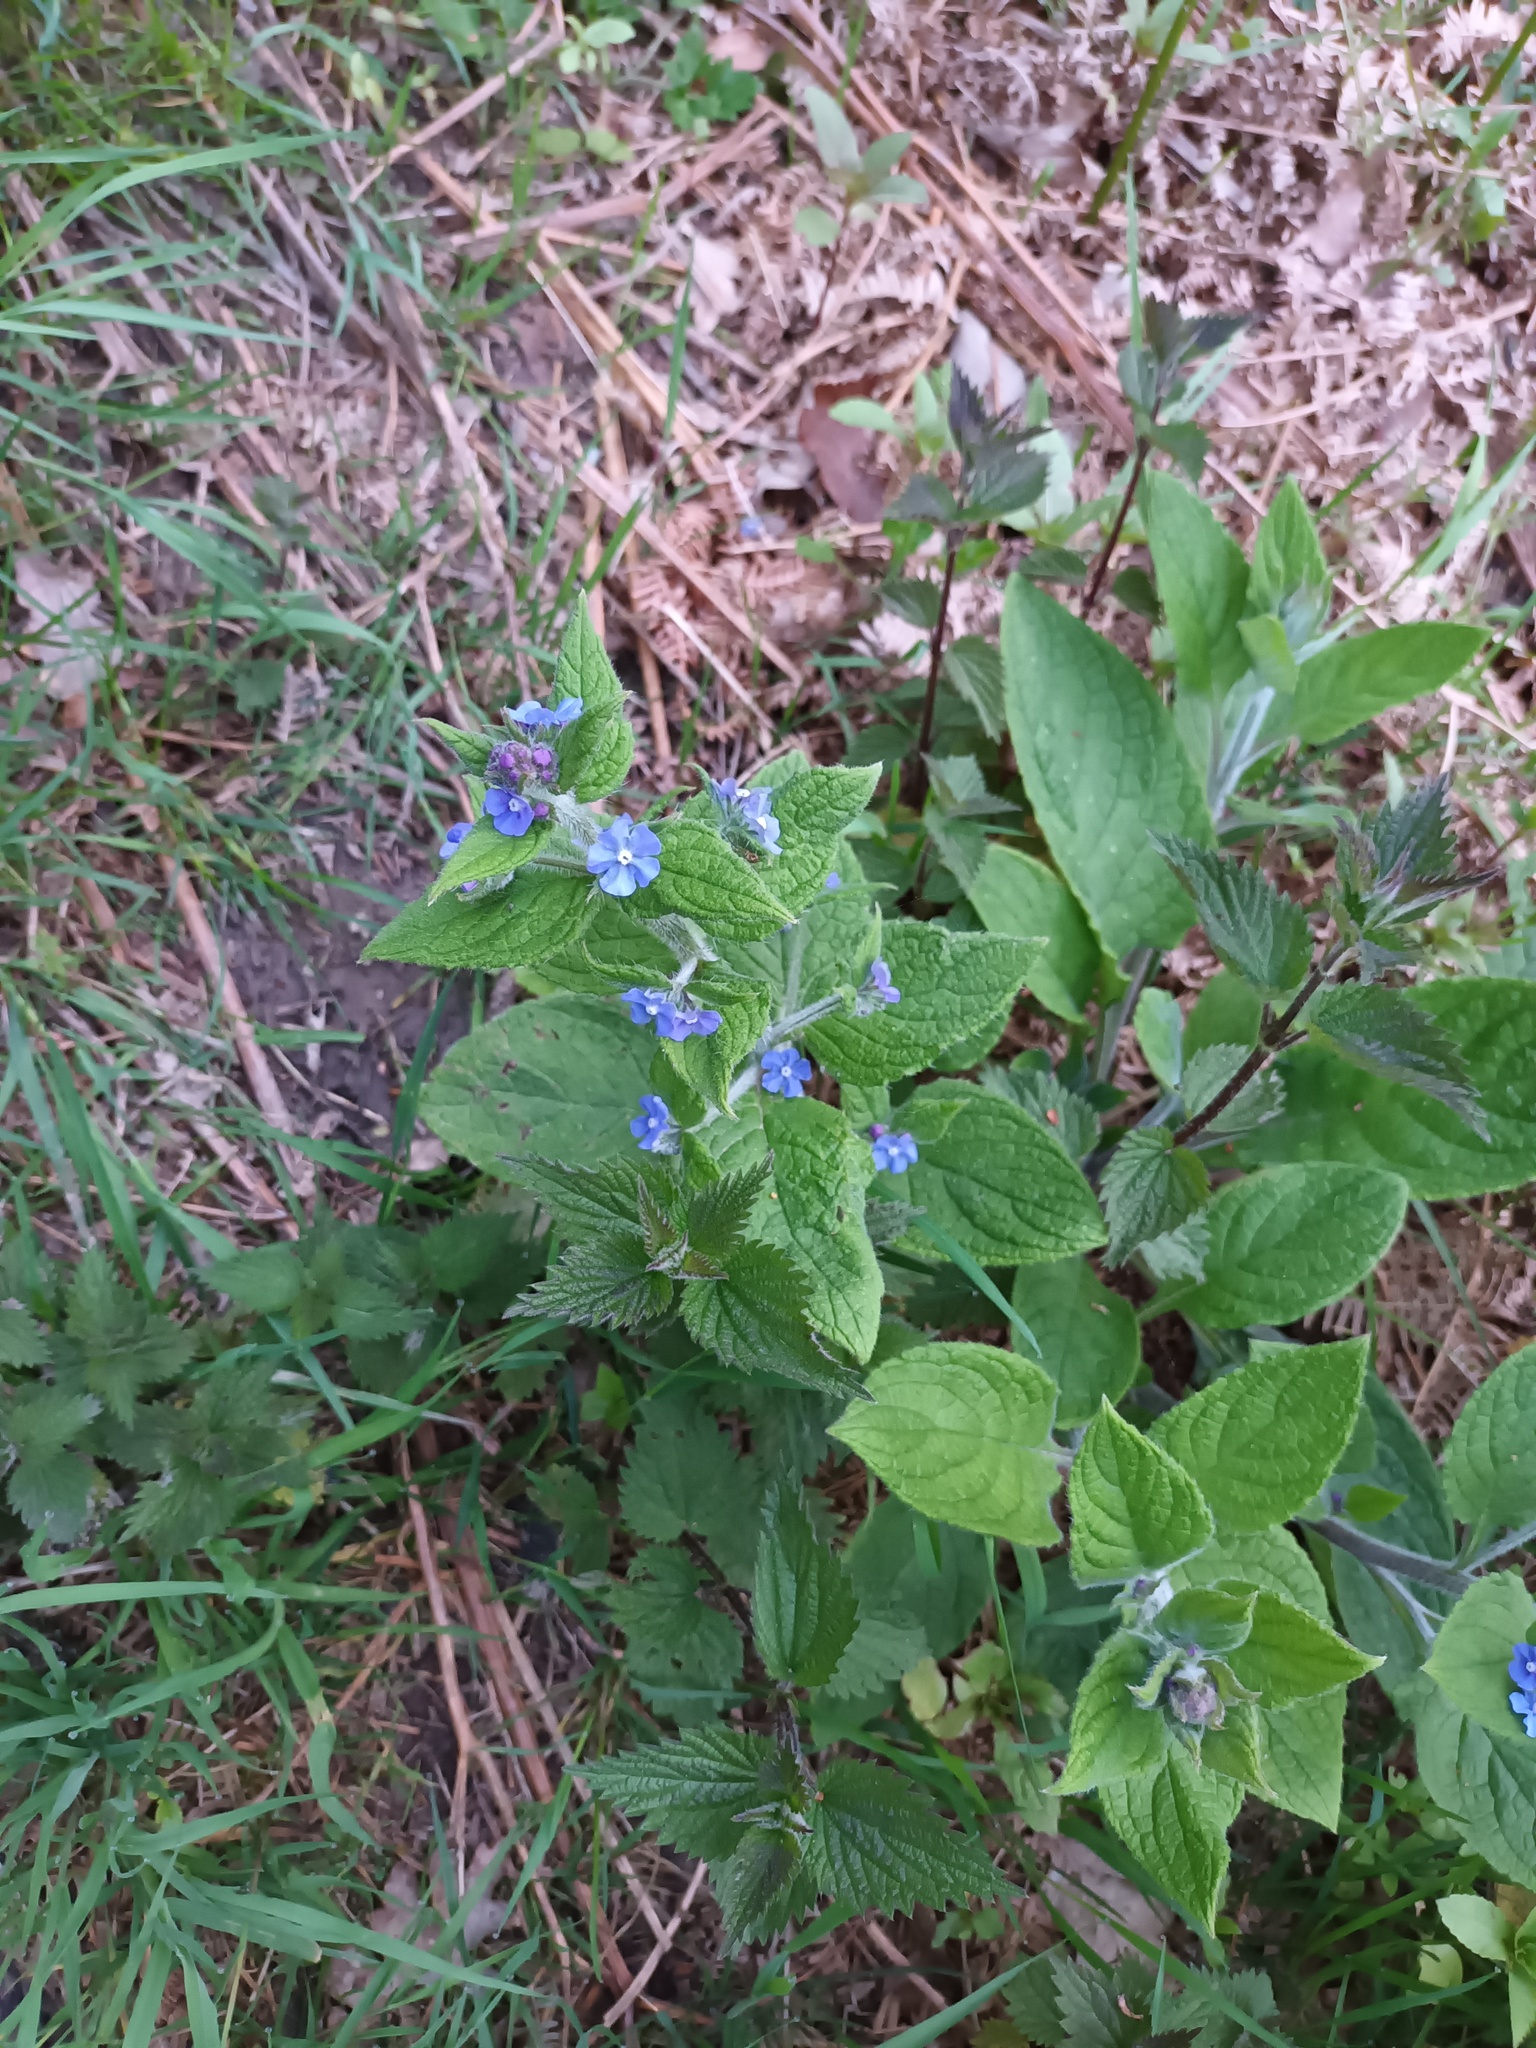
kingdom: Plantae
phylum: Tracheophyta
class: Magnoliopsida
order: Boraginales
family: Boraginaceae
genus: Pentaglottis
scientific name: Pentaglottis sempervirens
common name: Green alkanet
